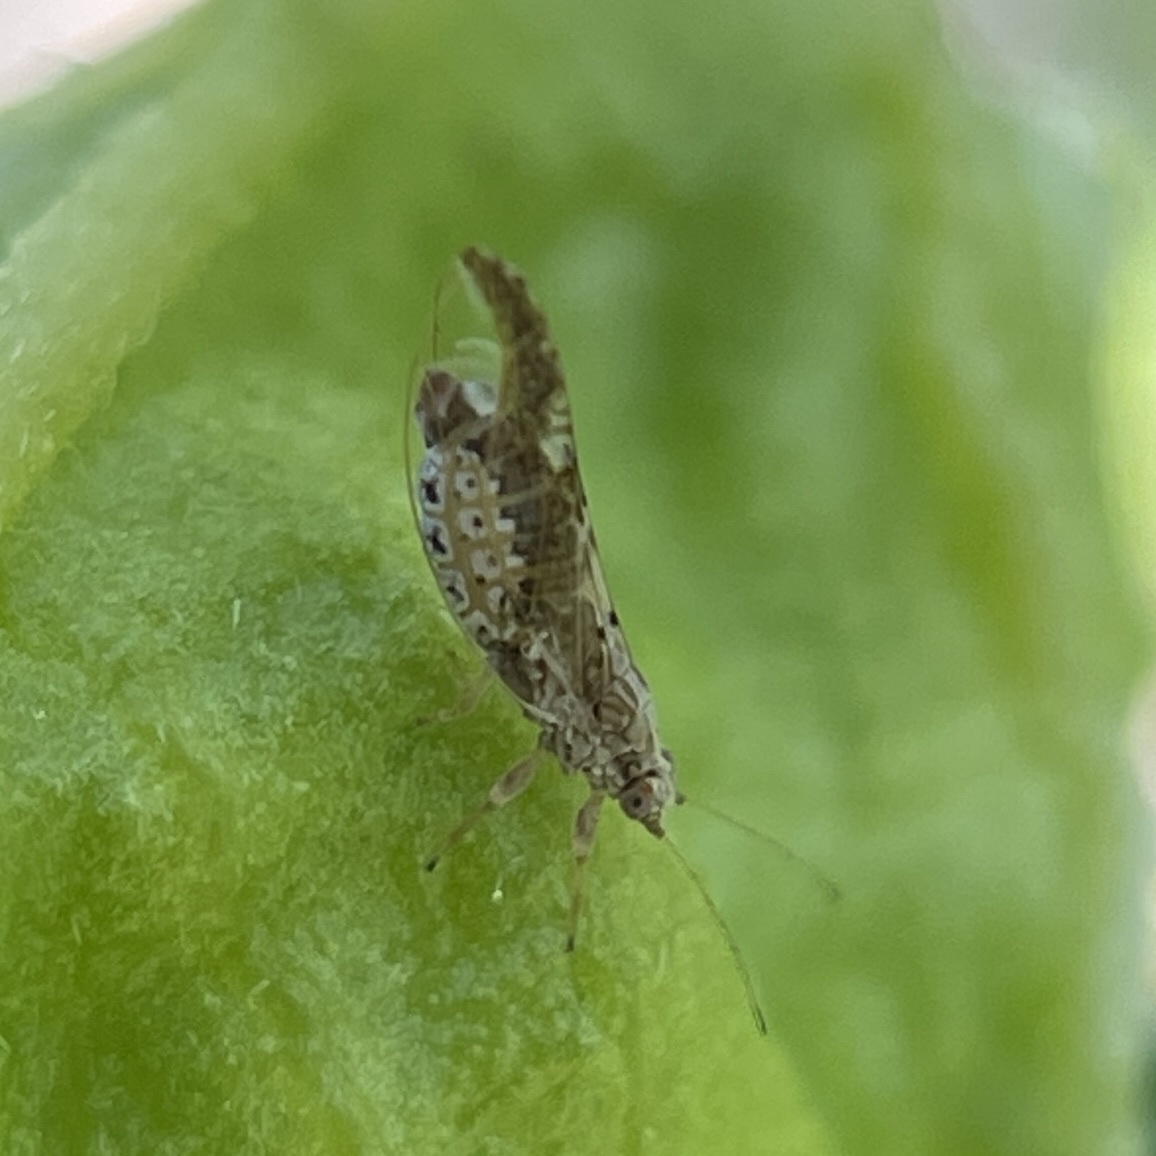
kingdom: Animalia
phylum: Arthropoda
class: Insecta
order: Hemiptera
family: Triozidae
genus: Leuronota
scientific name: Leuronota maculata
